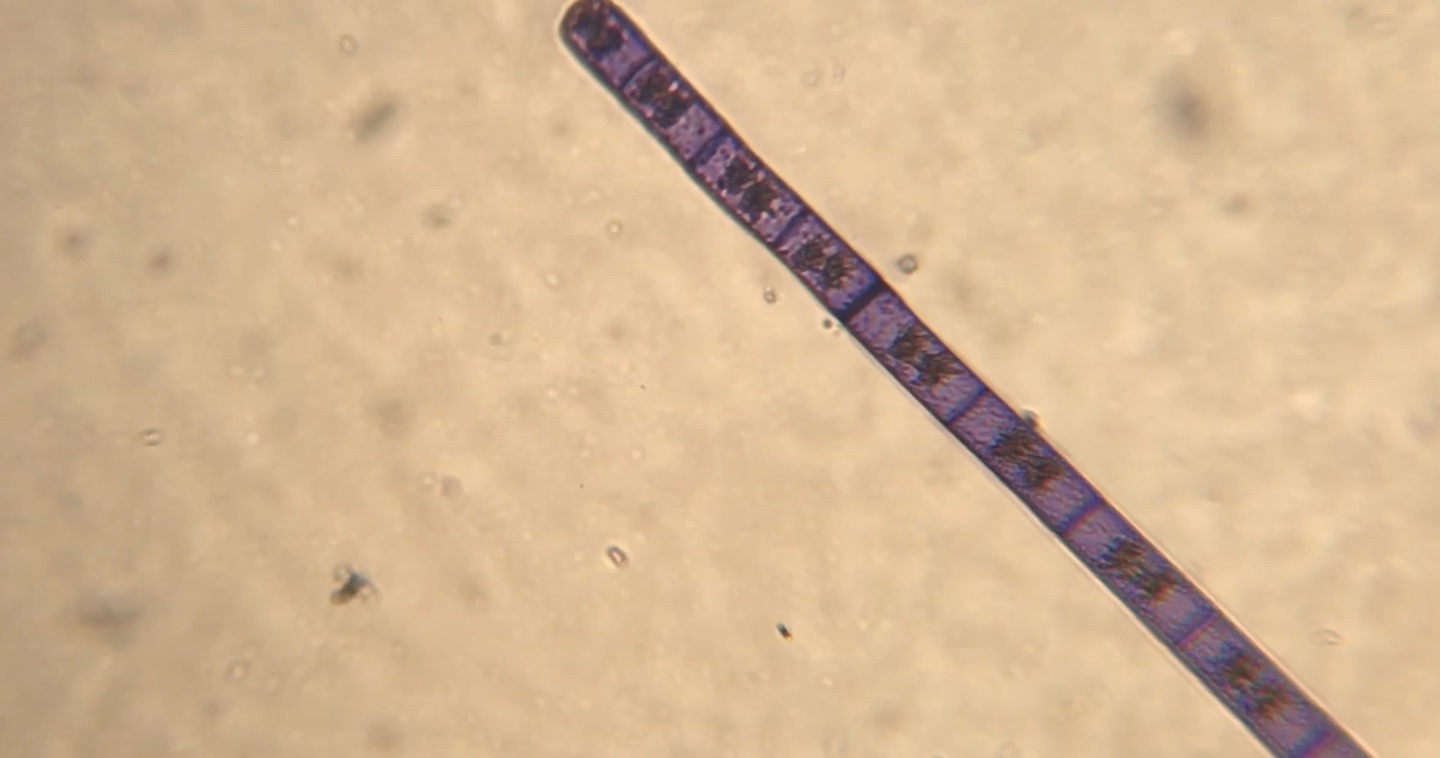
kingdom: Plantae
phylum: Charophyta
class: Zygnematophyceae
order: Zygnematales
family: Zygnemataceae
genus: Zygnema
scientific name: Zygnema
